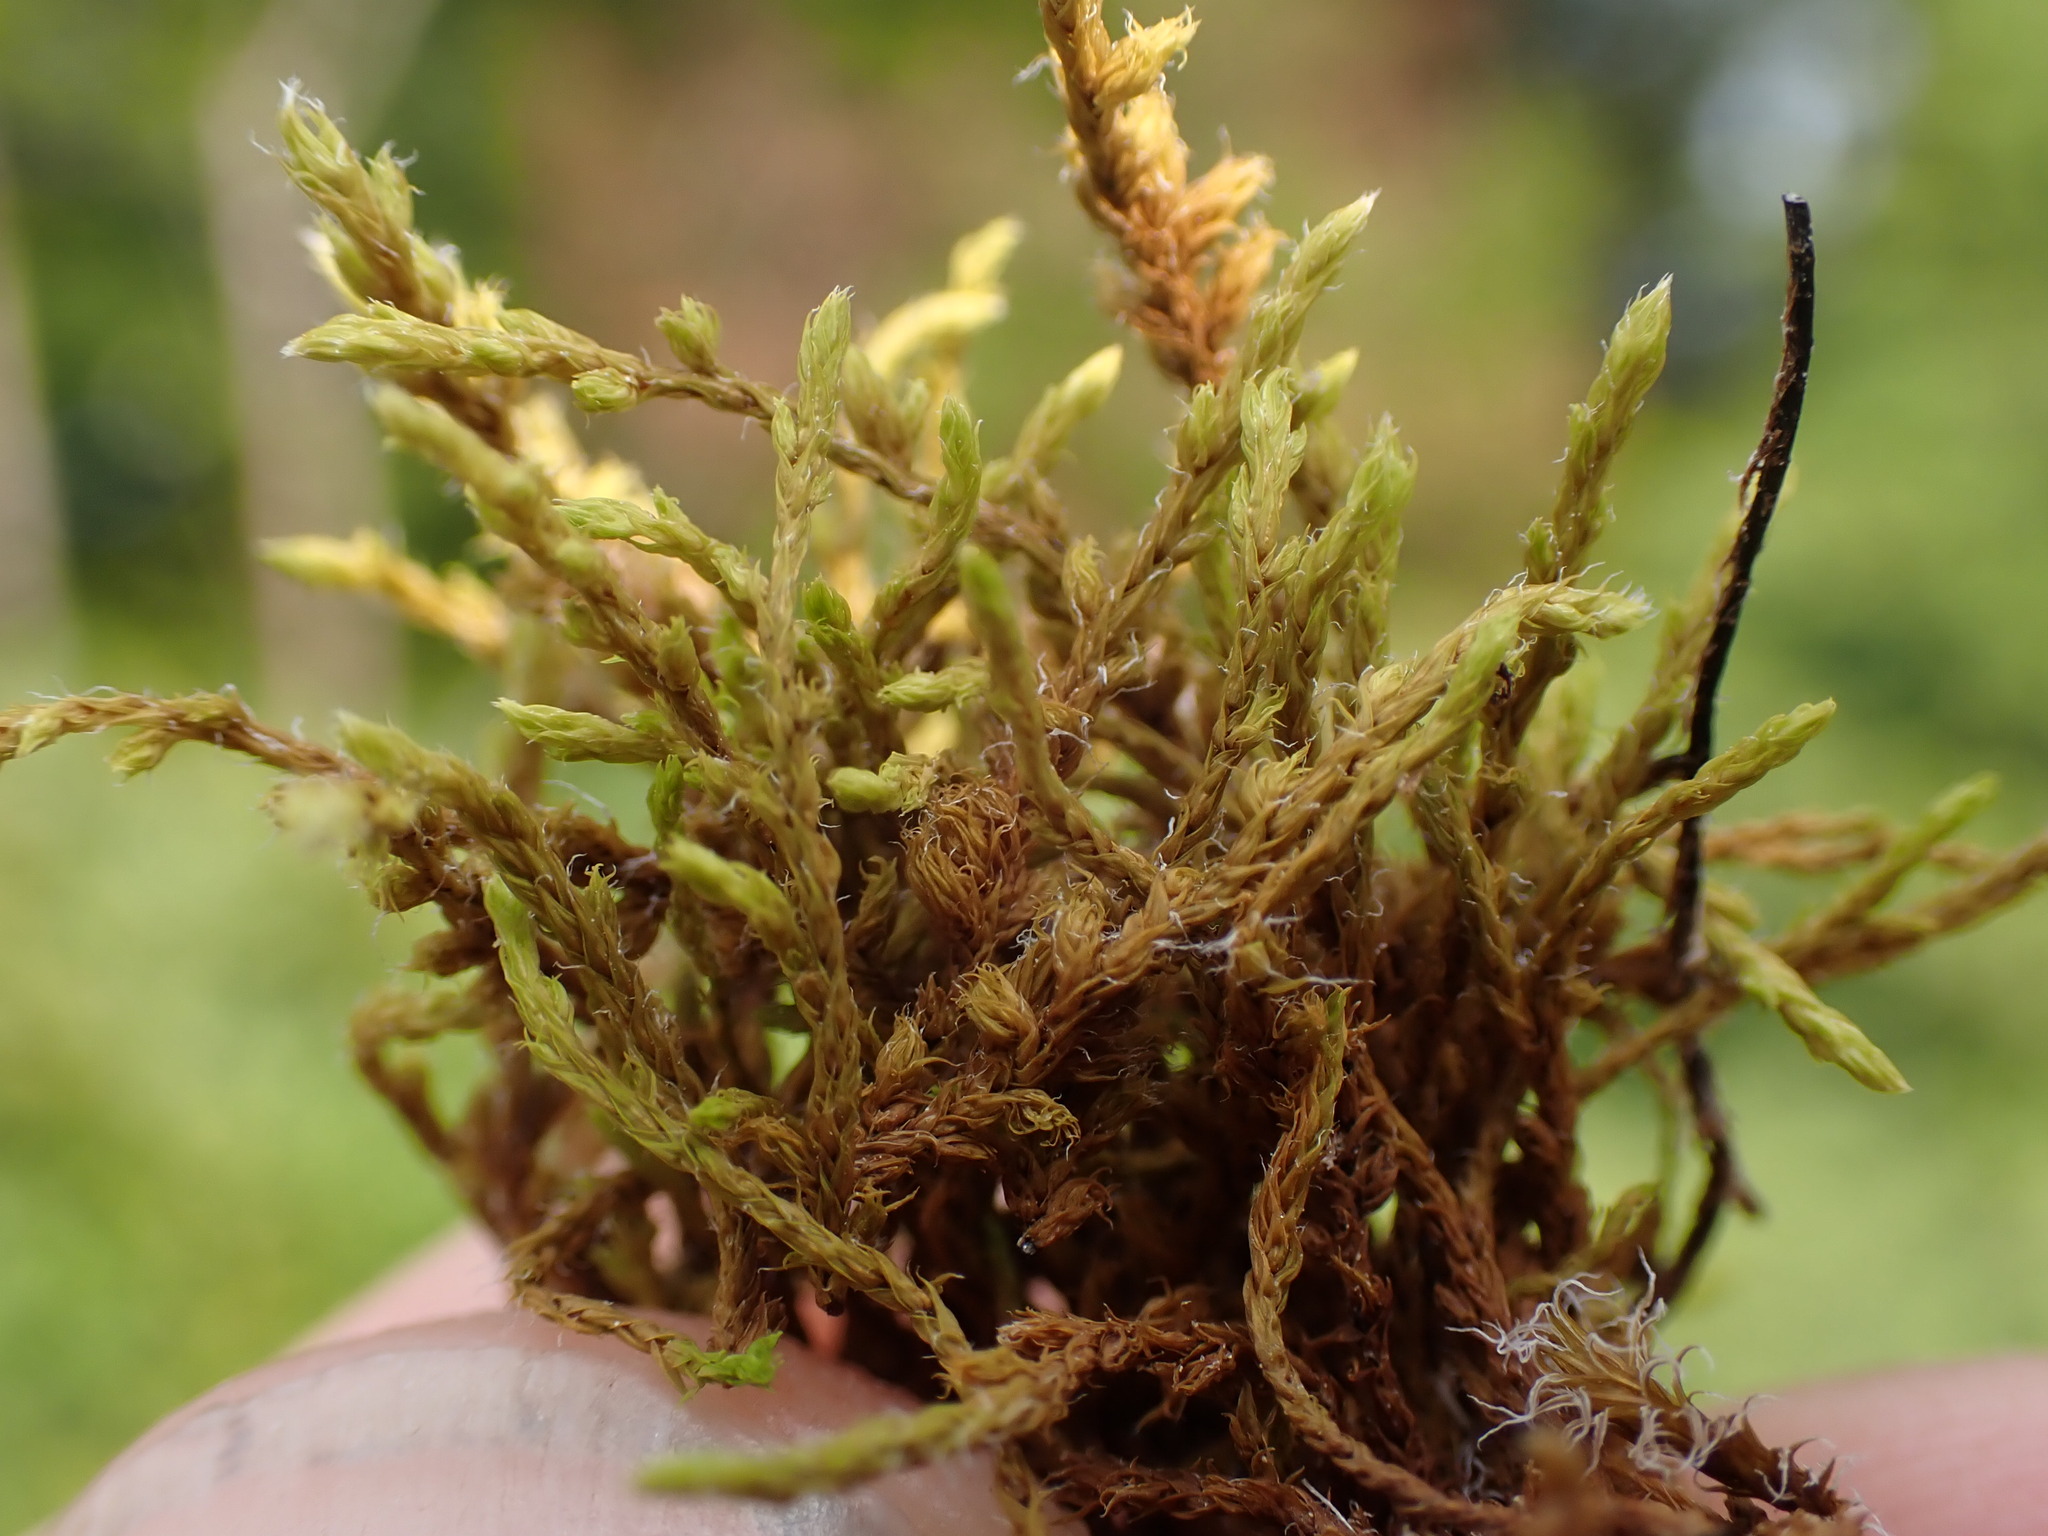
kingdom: Plantae
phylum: Bryophyta
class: Bryopsida
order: Grimmiales
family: Grimmiaceae
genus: Frisvollia
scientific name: Frisvollia varia
